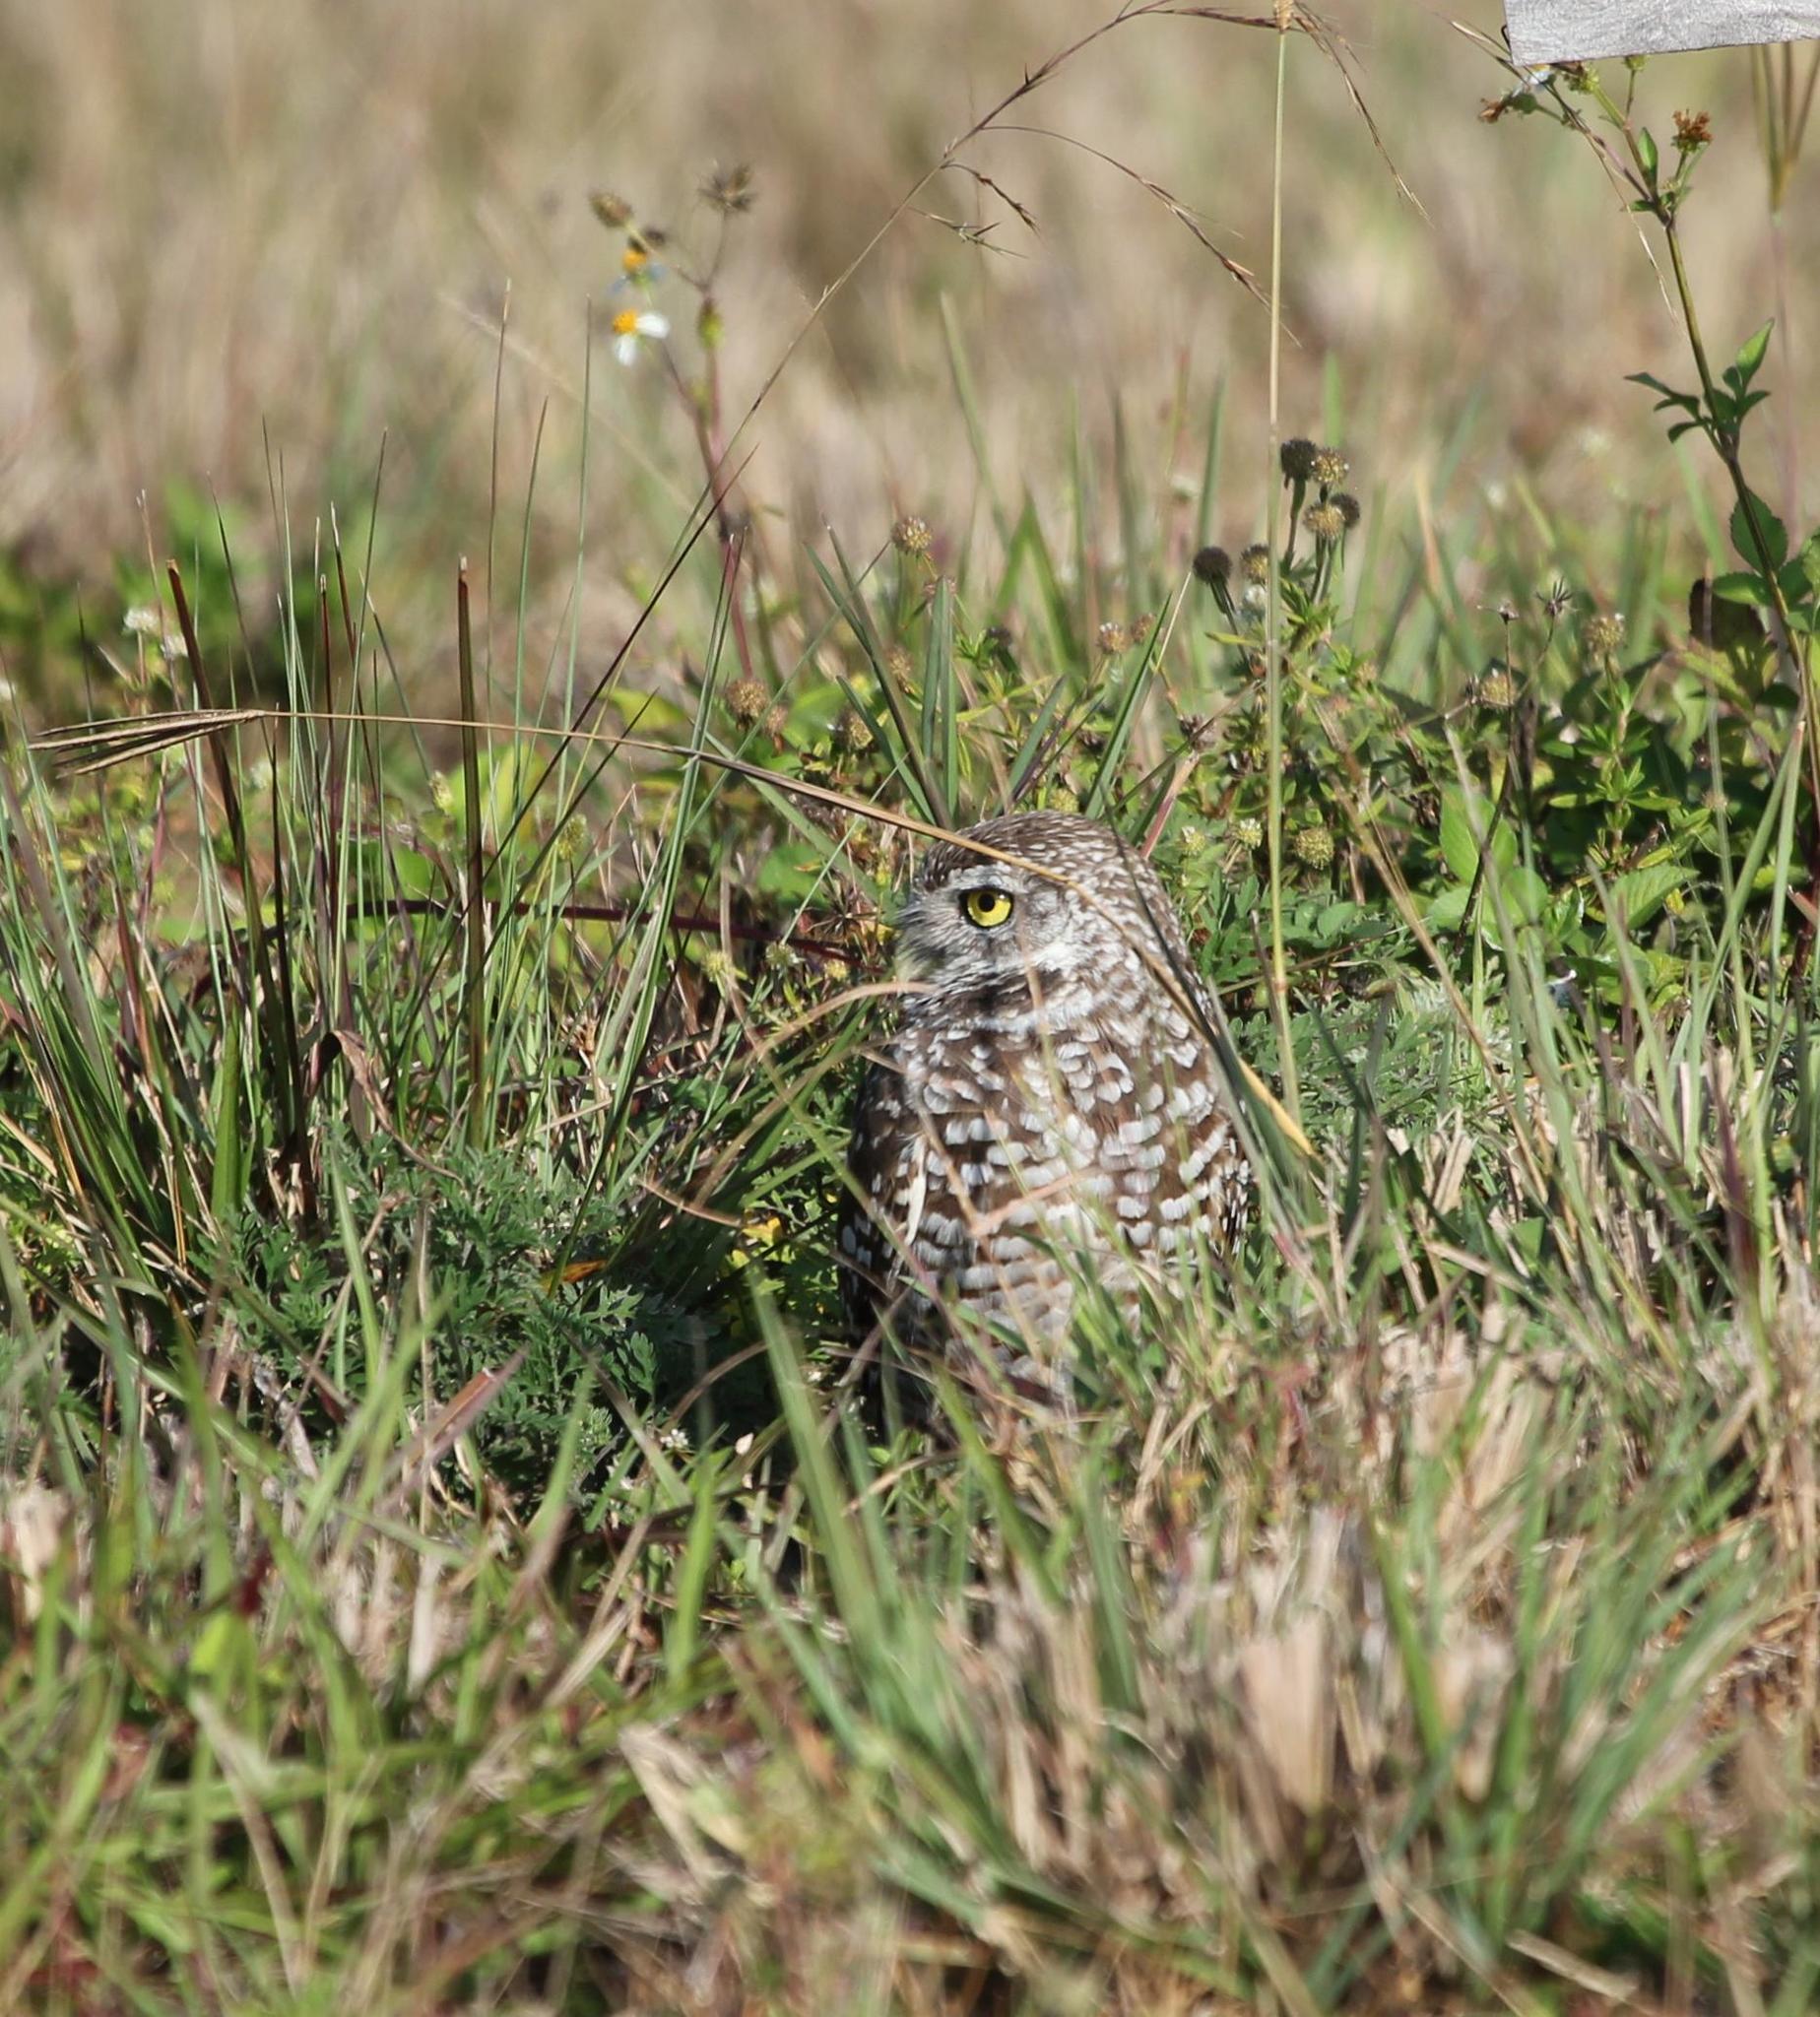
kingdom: Animalia
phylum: Chordata
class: Aves
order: Strigiformes
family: Strigidae
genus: Athene
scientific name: Athene cunicularia
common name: Burrowing owl
